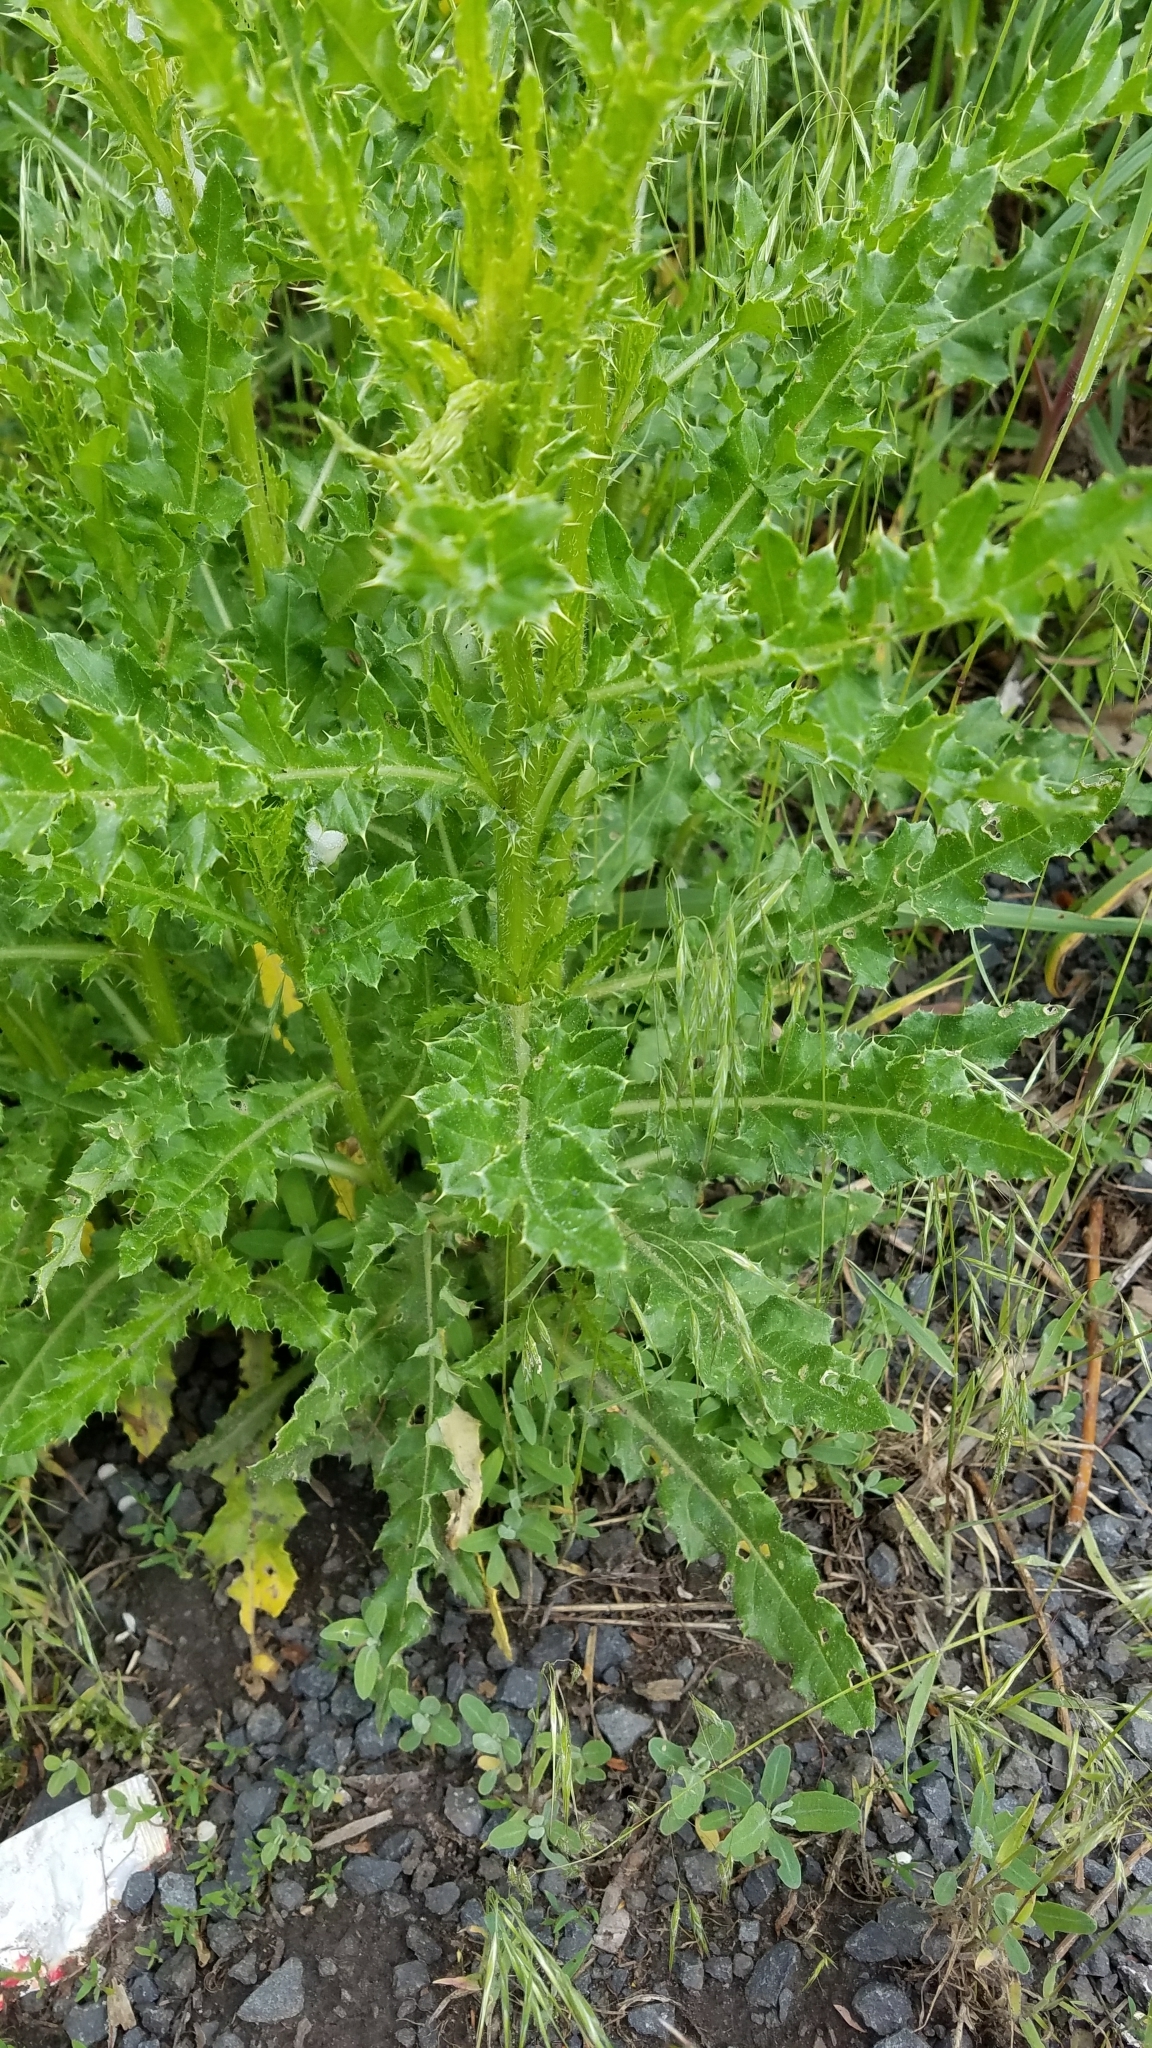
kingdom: Plantae
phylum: Tracheophyta
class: Magnoliopsida
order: Asterales
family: Asteraceae
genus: Cirsium
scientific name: Cirsium arvense
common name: Creeping thistle
